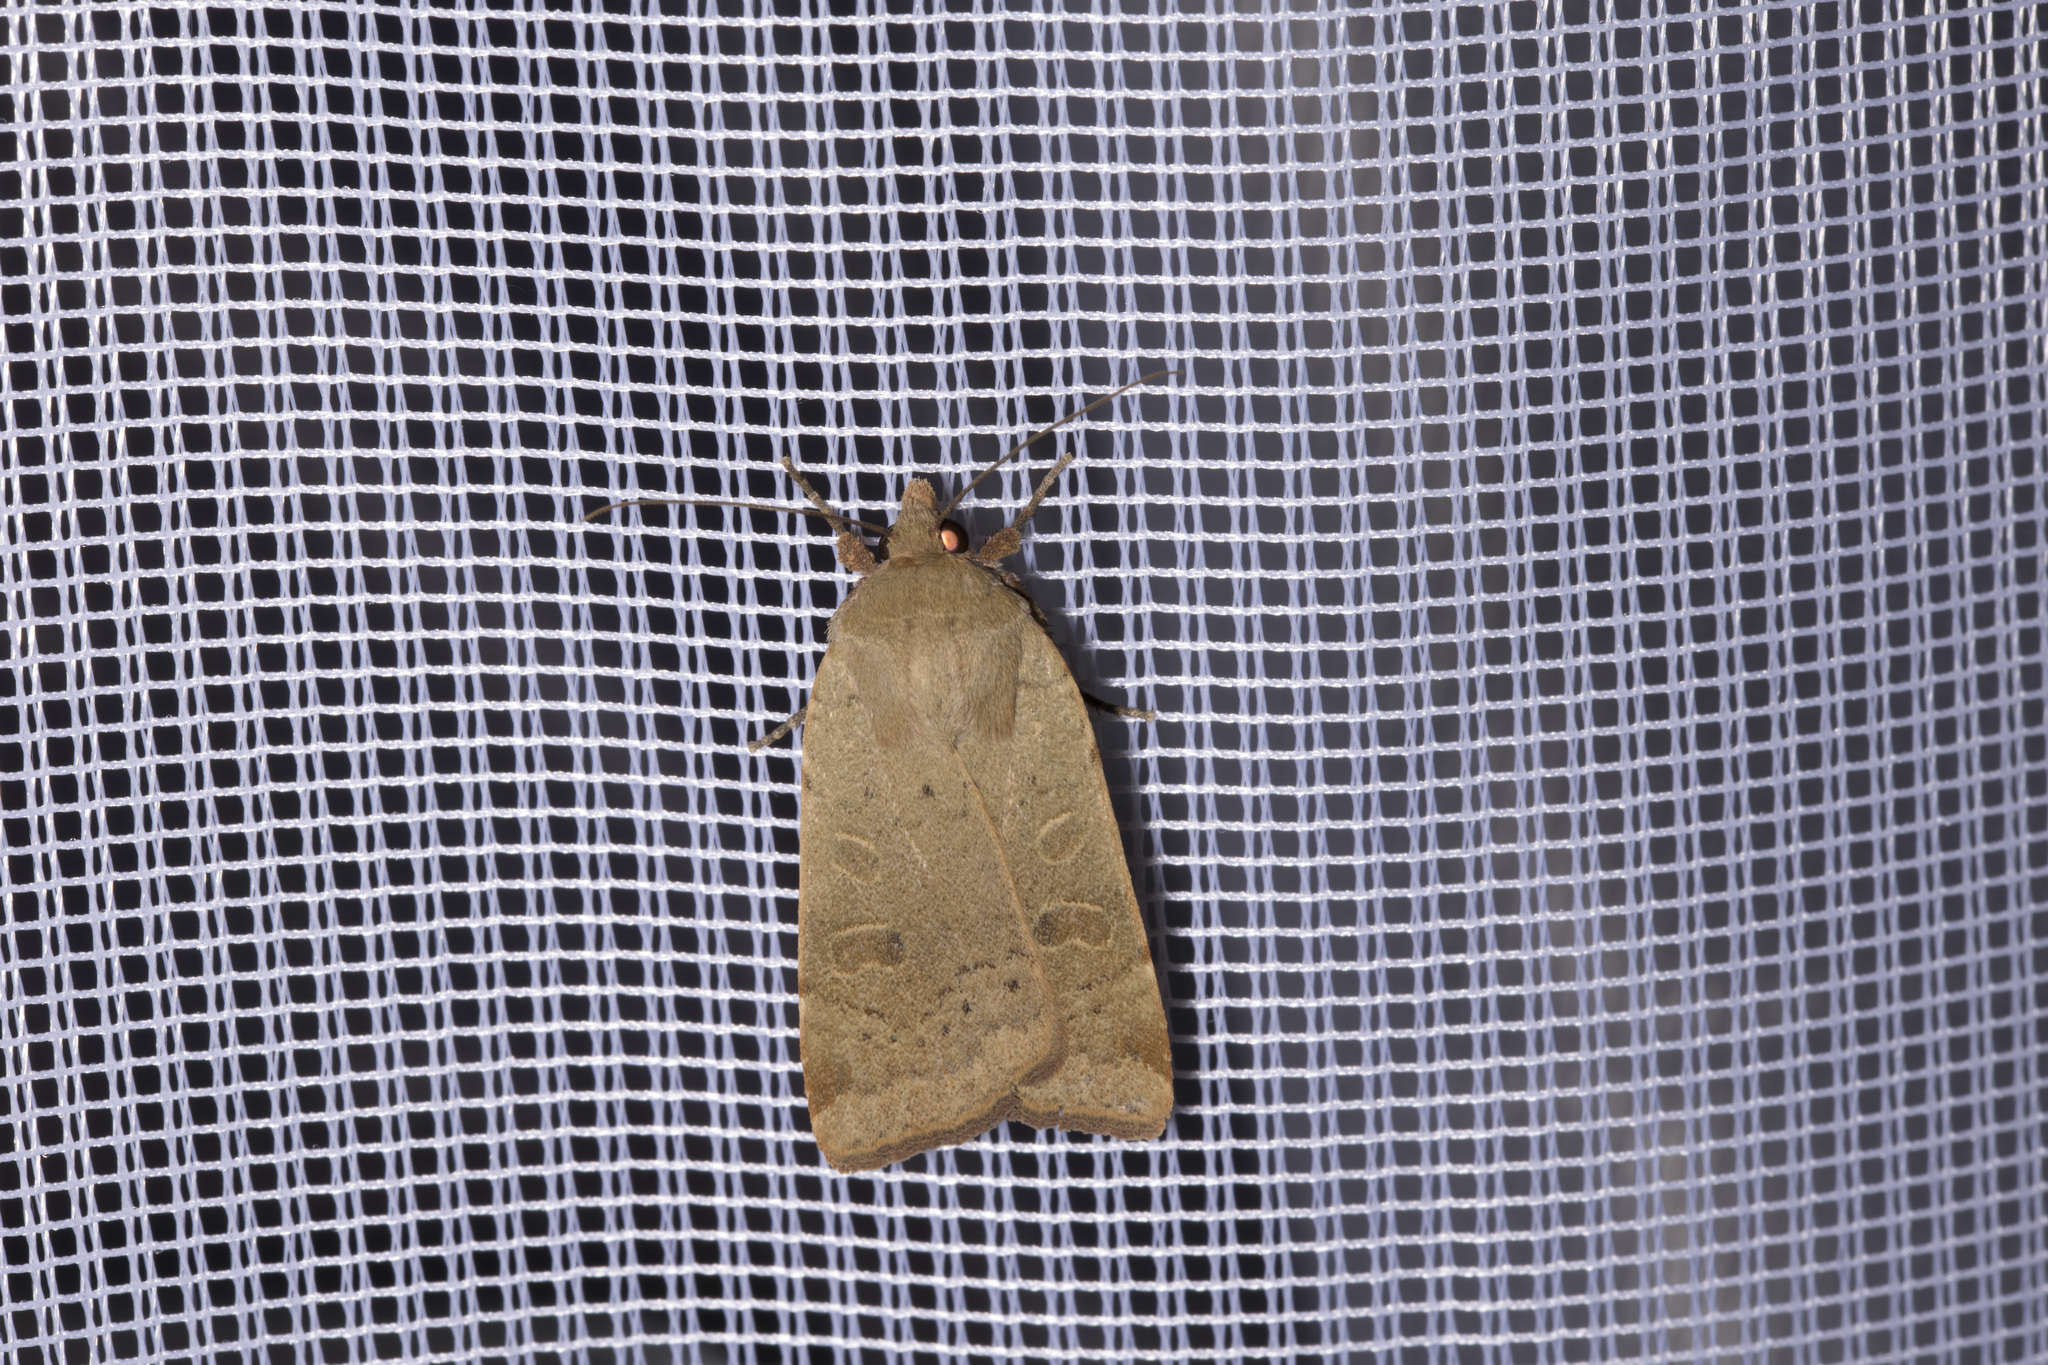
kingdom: Animalia
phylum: Arthropoda
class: Insecta
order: Lepidoptera
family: Noctuidae
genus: Noctua
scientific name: Noctua comes
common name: Lesser yellow underwing
